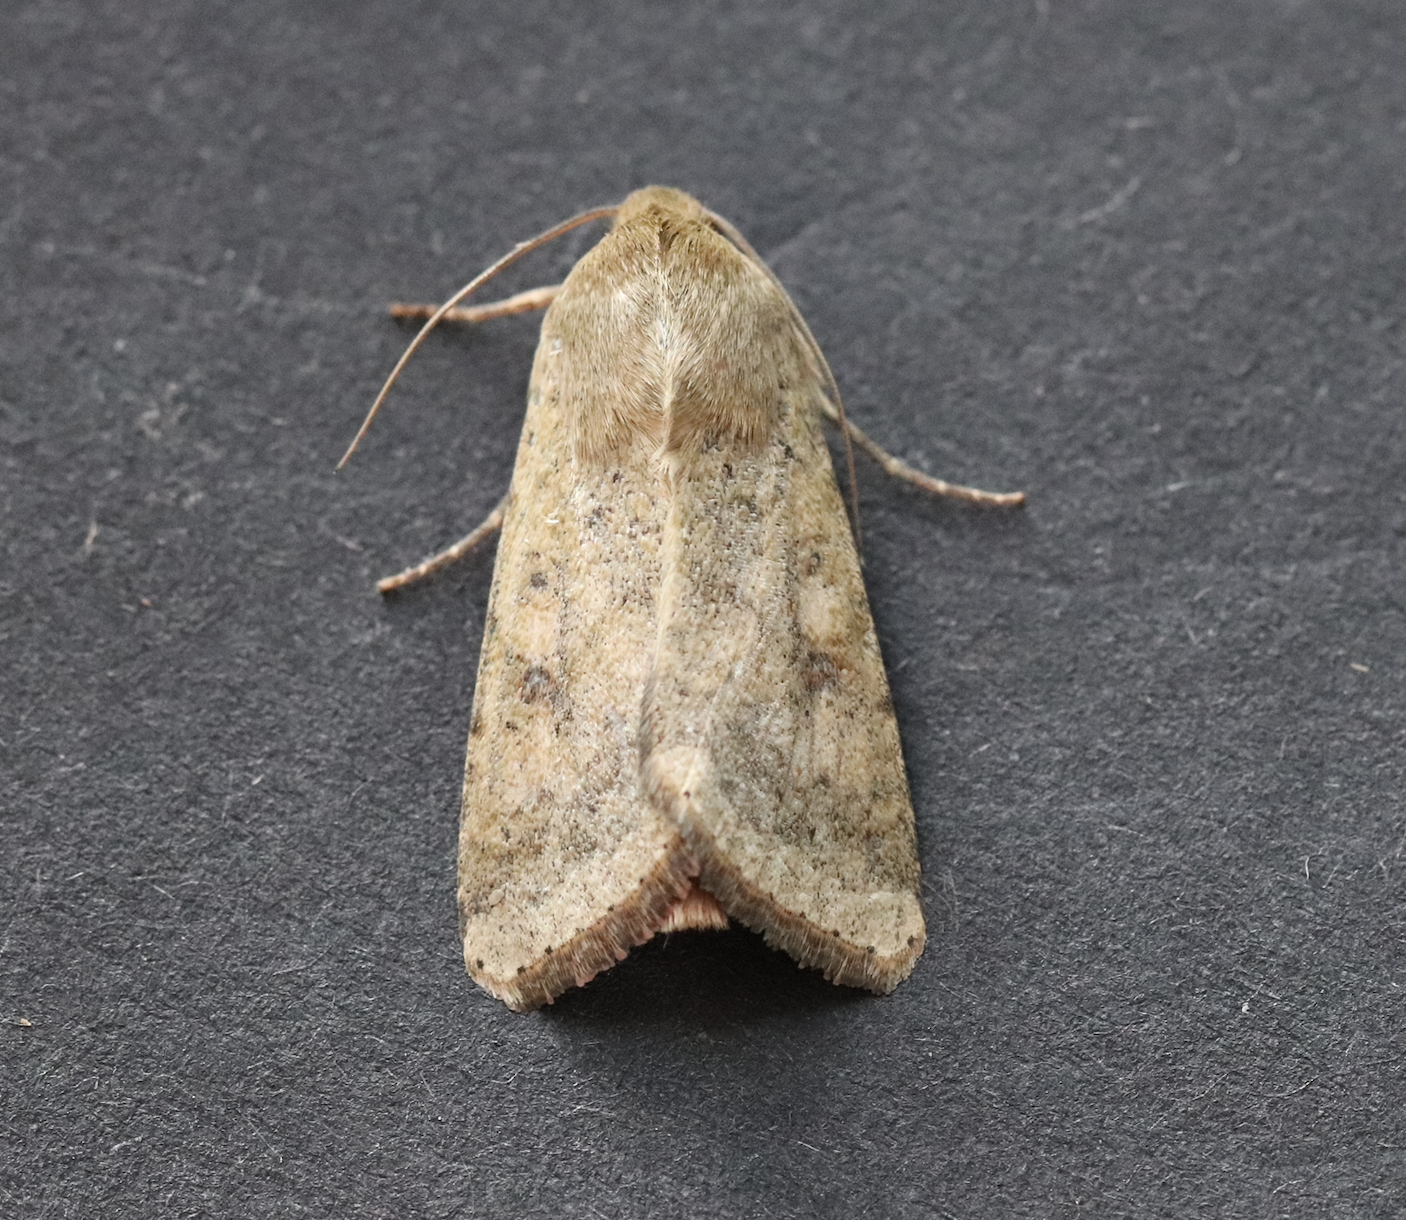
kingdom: Animalia
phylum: Arthropoda
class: Insecta
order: Lepidoptera
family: Noctuidae
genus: Helicoverpa
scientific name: Helicoverpa armigera
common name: Cotton bollworm
